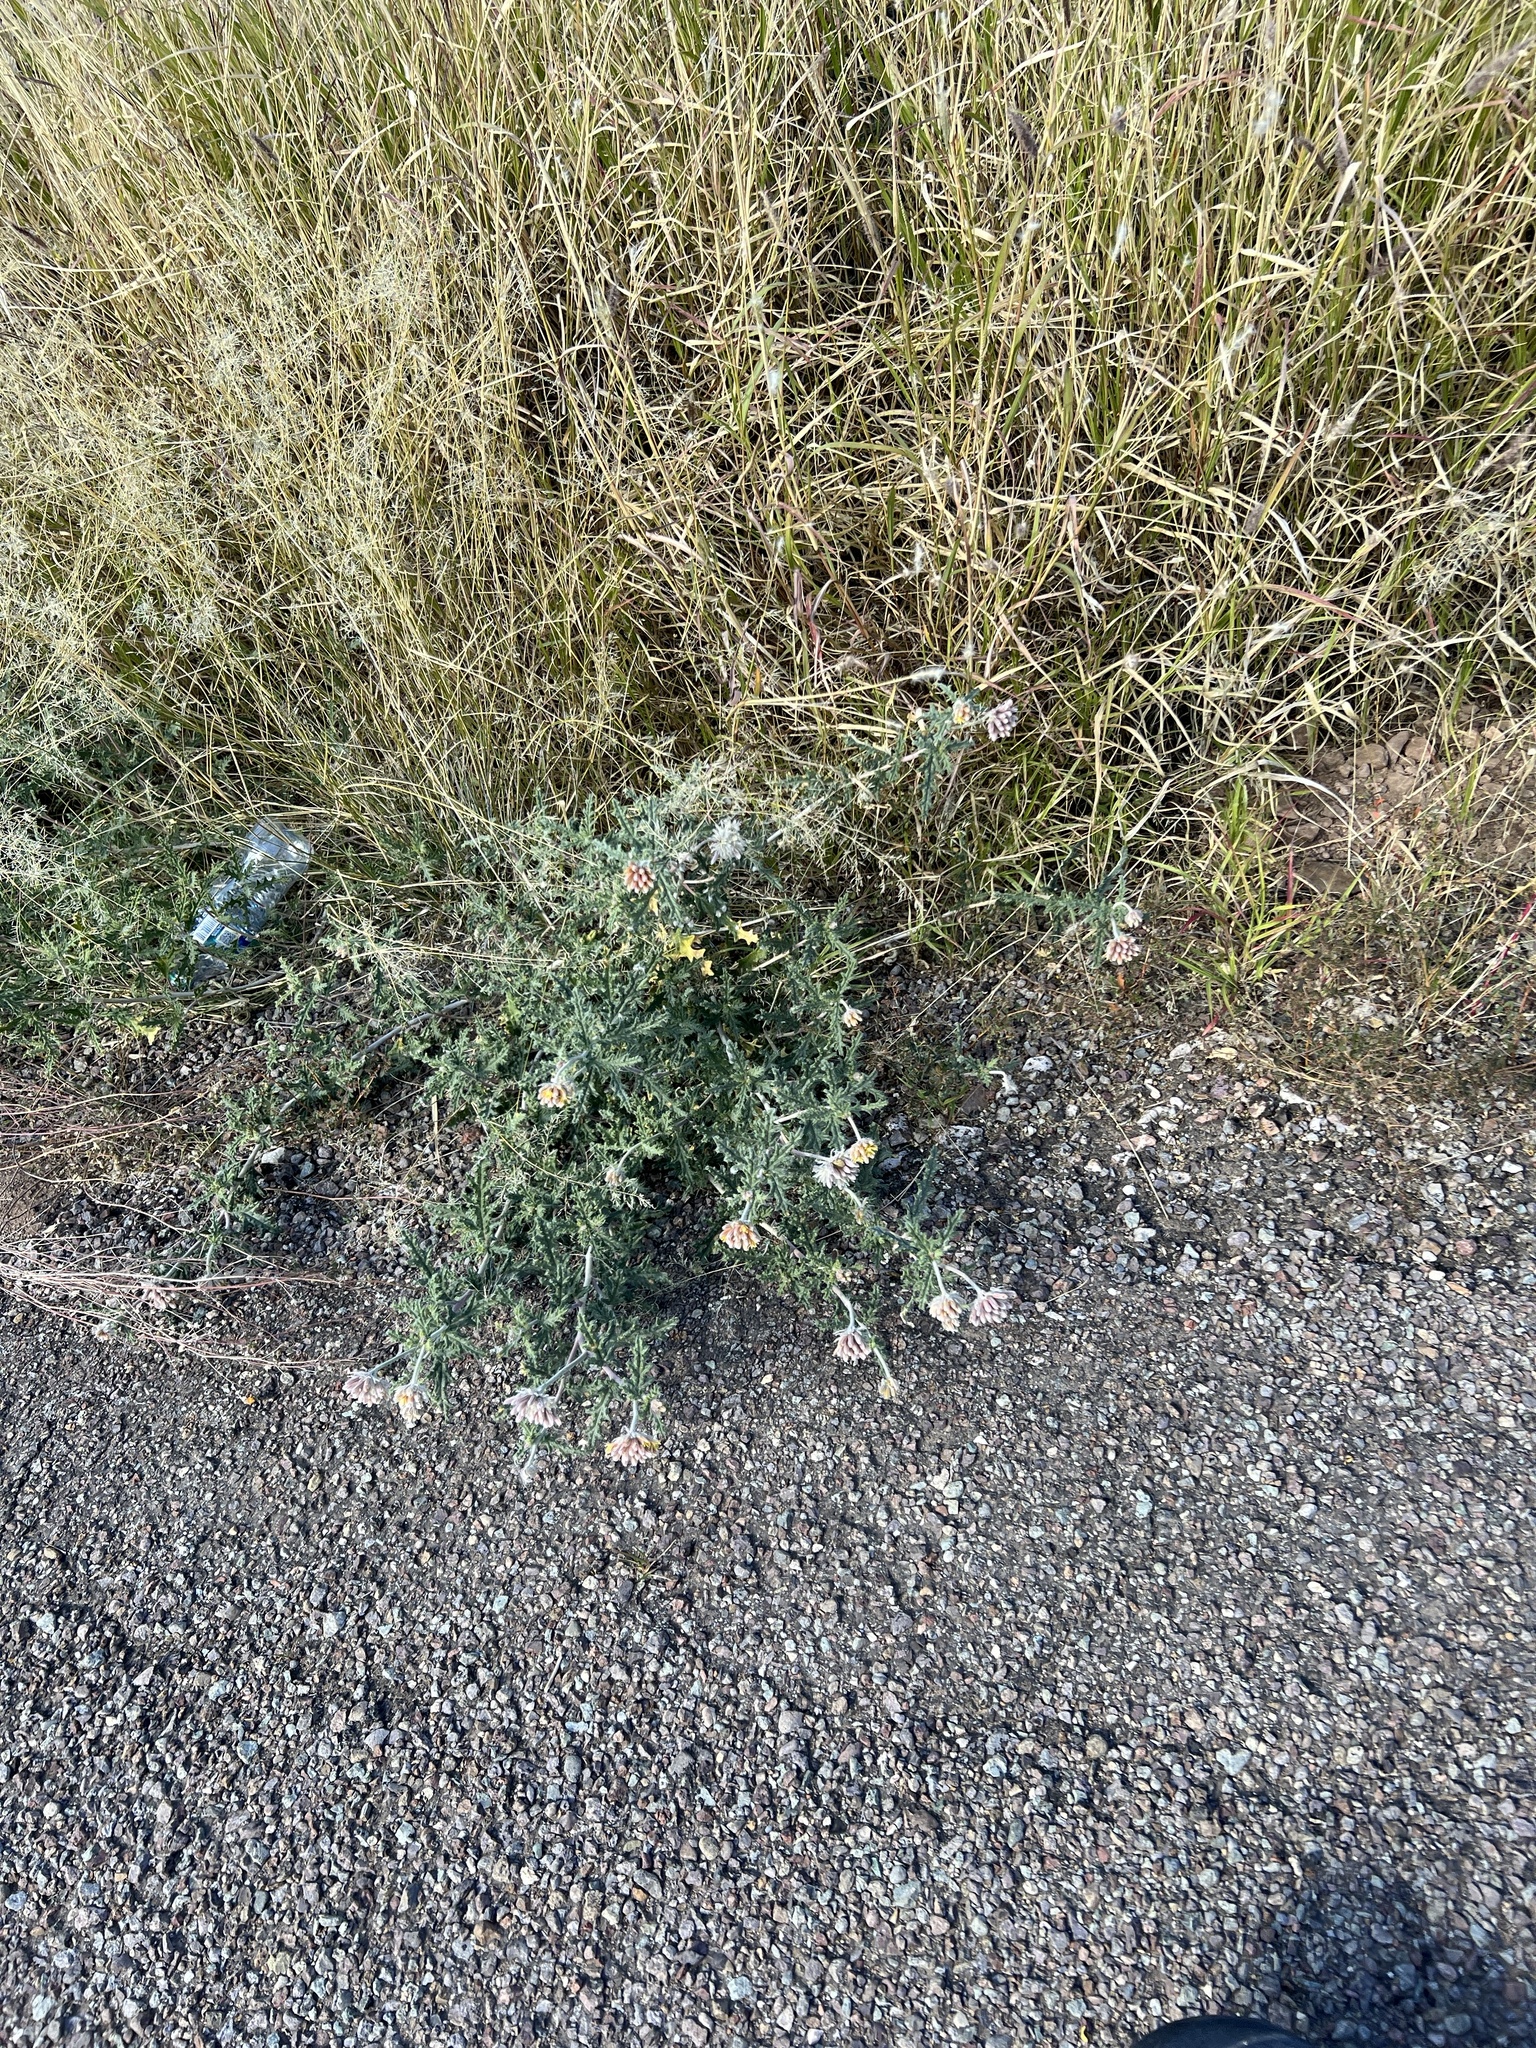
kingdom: Plantae
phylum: Tracheophyta
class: Magnoliopsida
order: Cornales
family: Loasaceae
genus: Cevallia
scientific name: Cevallia sinuata
